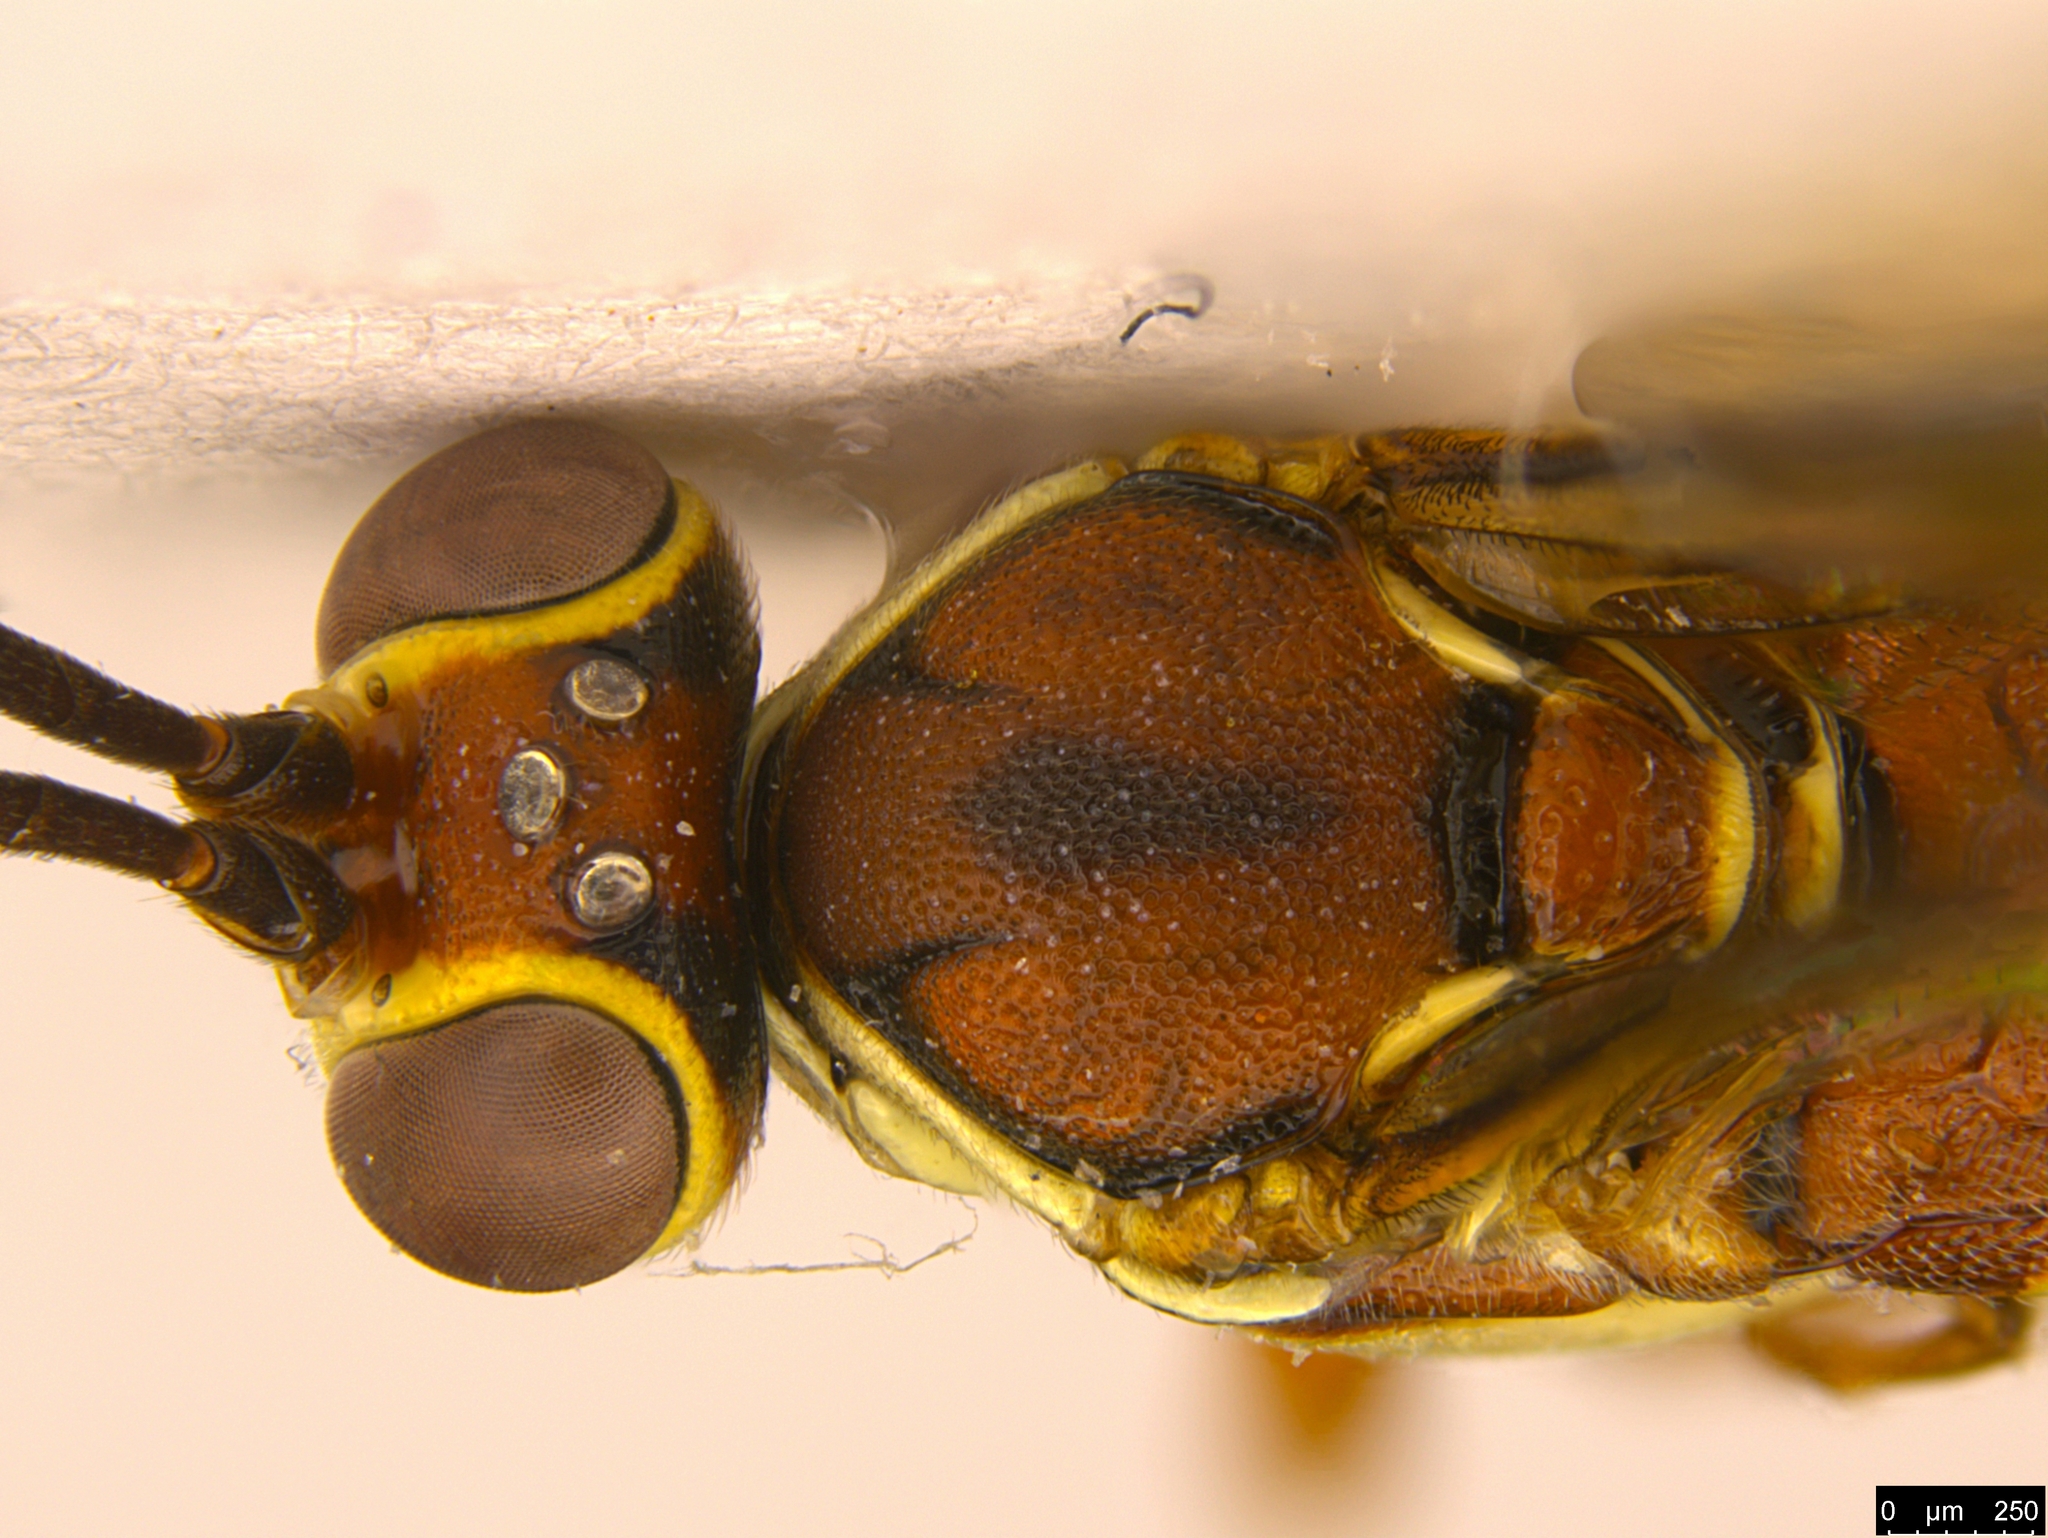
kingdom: Animalia
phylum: Arthropoda
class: Insecta
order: Hymenoptera
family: Ichneumonidae
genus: Gavrana
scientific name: Gavrana maculipes
